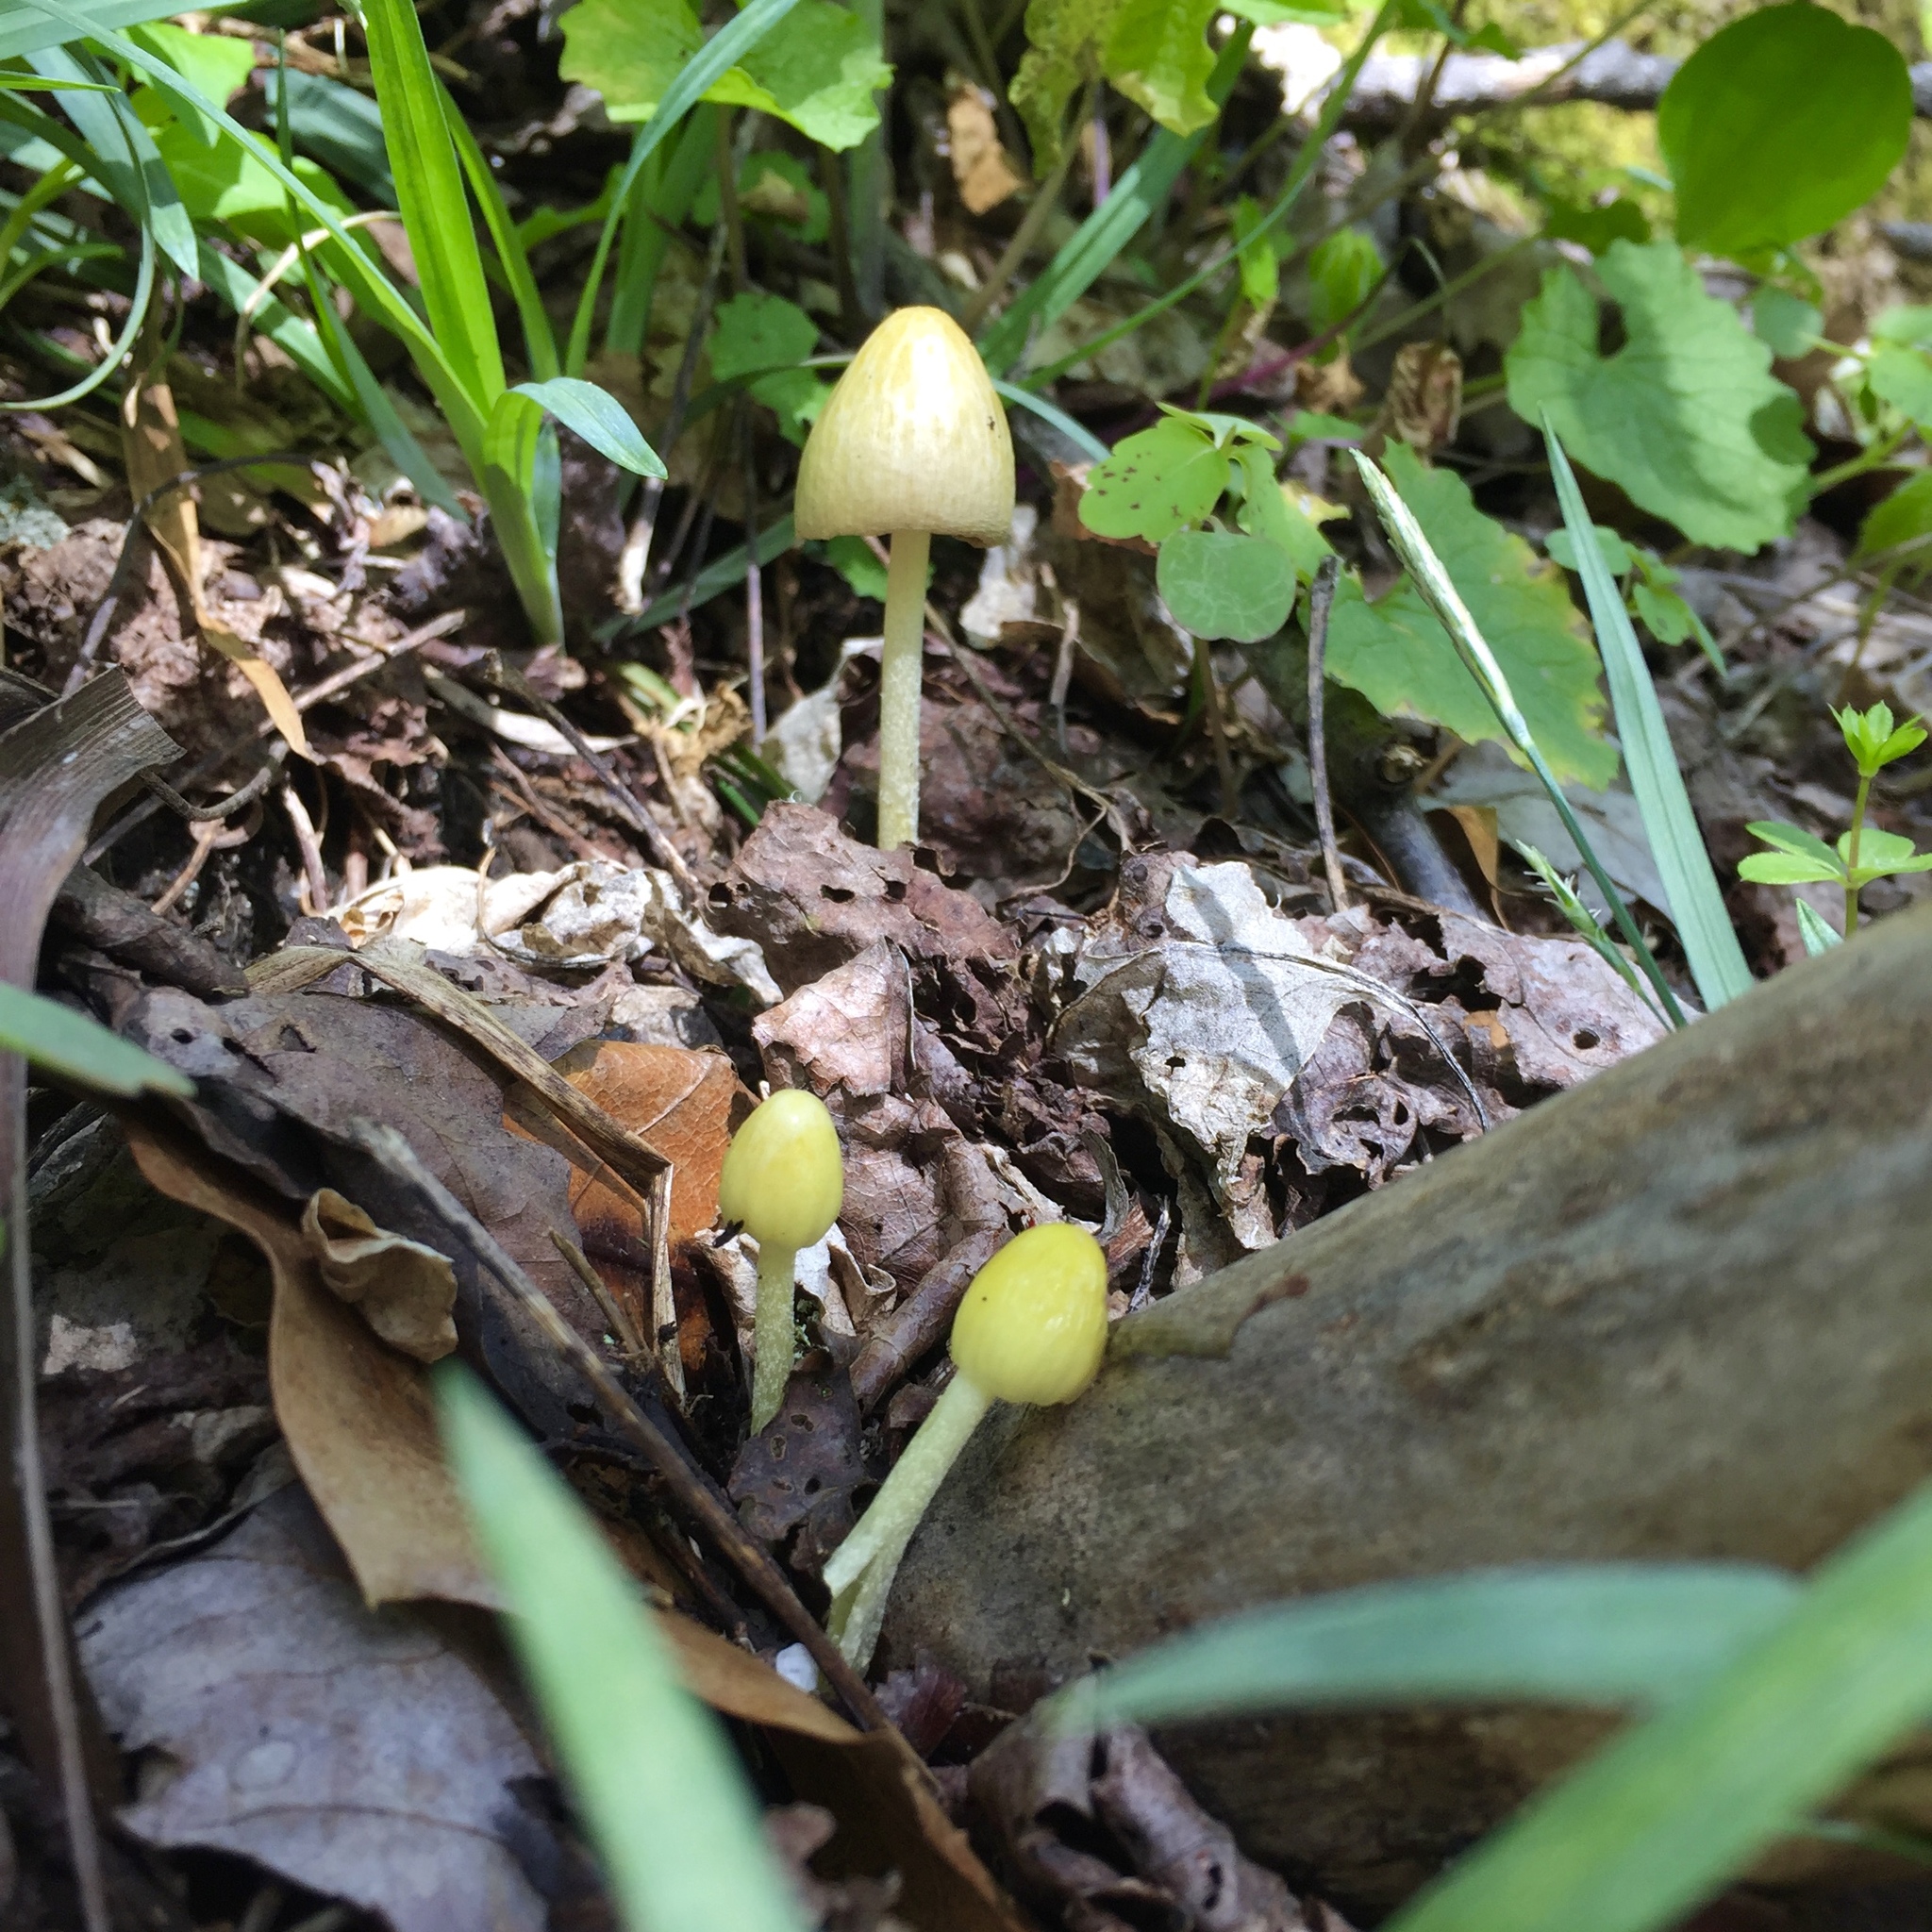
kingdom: Fungi
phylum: Basidiomycota
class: Agaricomycetes
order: Agaricales
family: Bolbitiaceae
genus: Bolbitius
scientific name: Bolbitius titubans
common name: Yellow fieldcap
